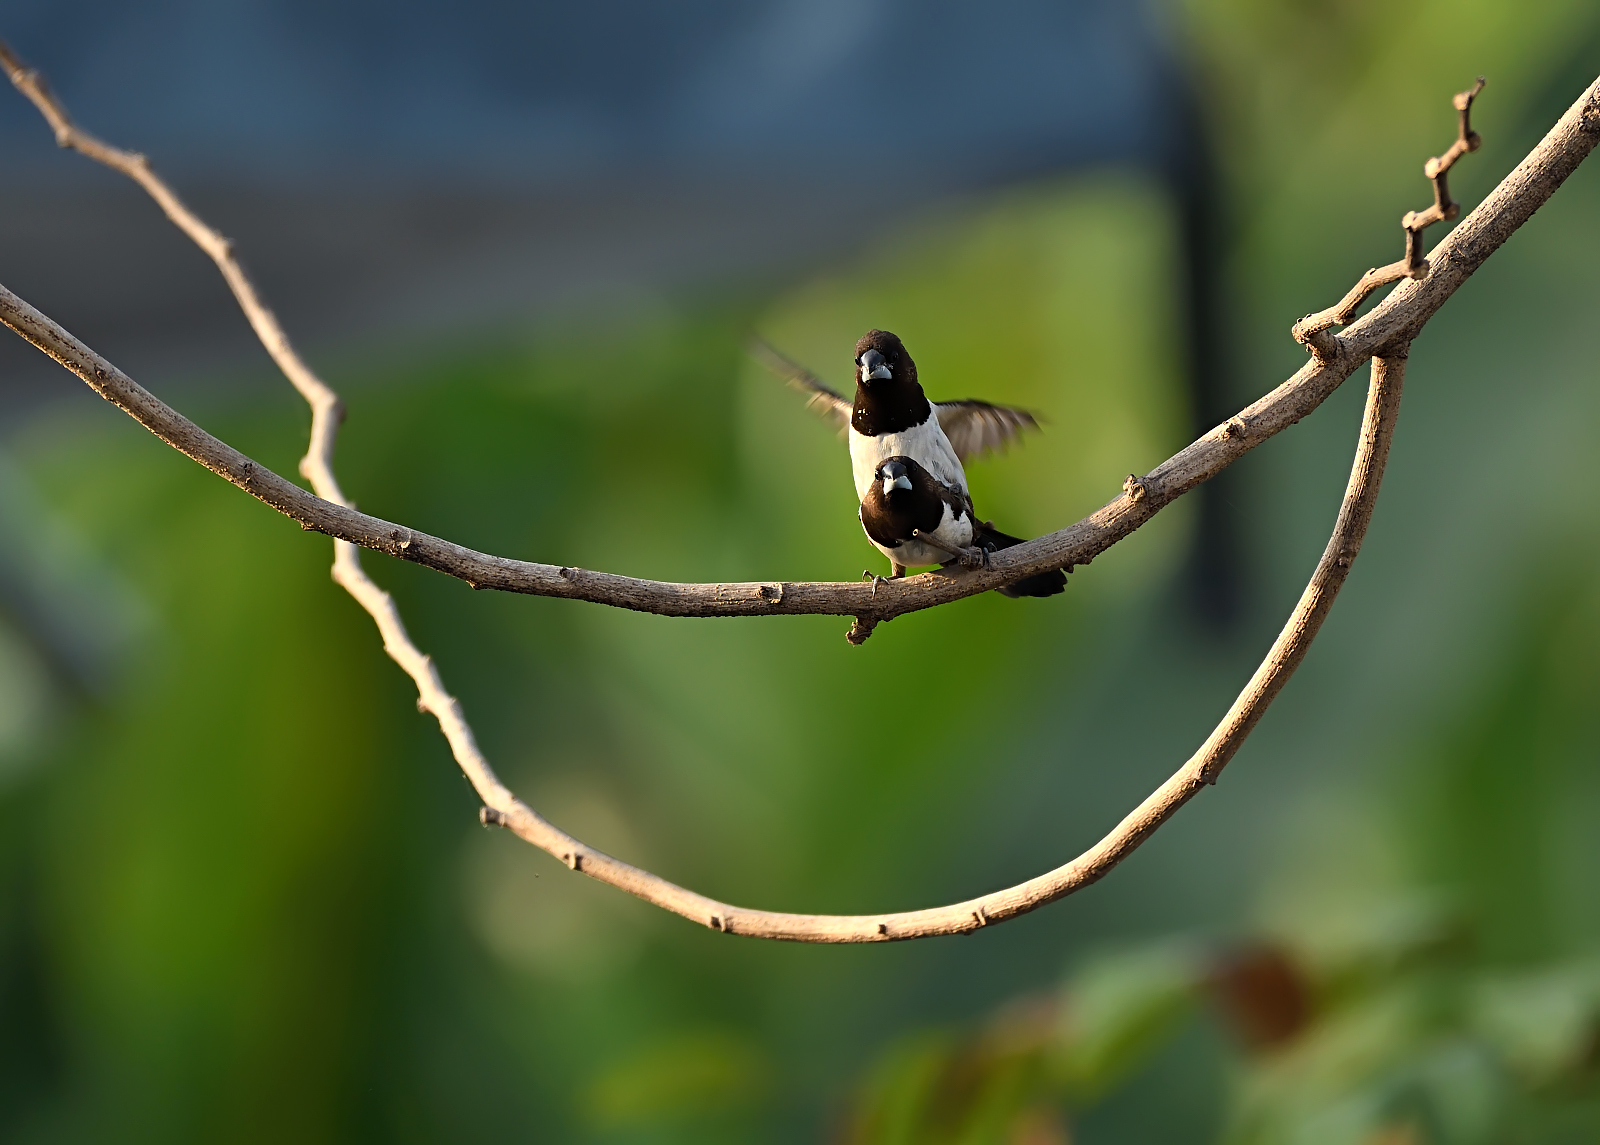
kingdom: Animalia
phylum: Chordata
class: Aves
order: Passeriformes
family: Estrildidae
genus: Lonchura
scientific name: Lonchura striata
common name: White-rumped munia
